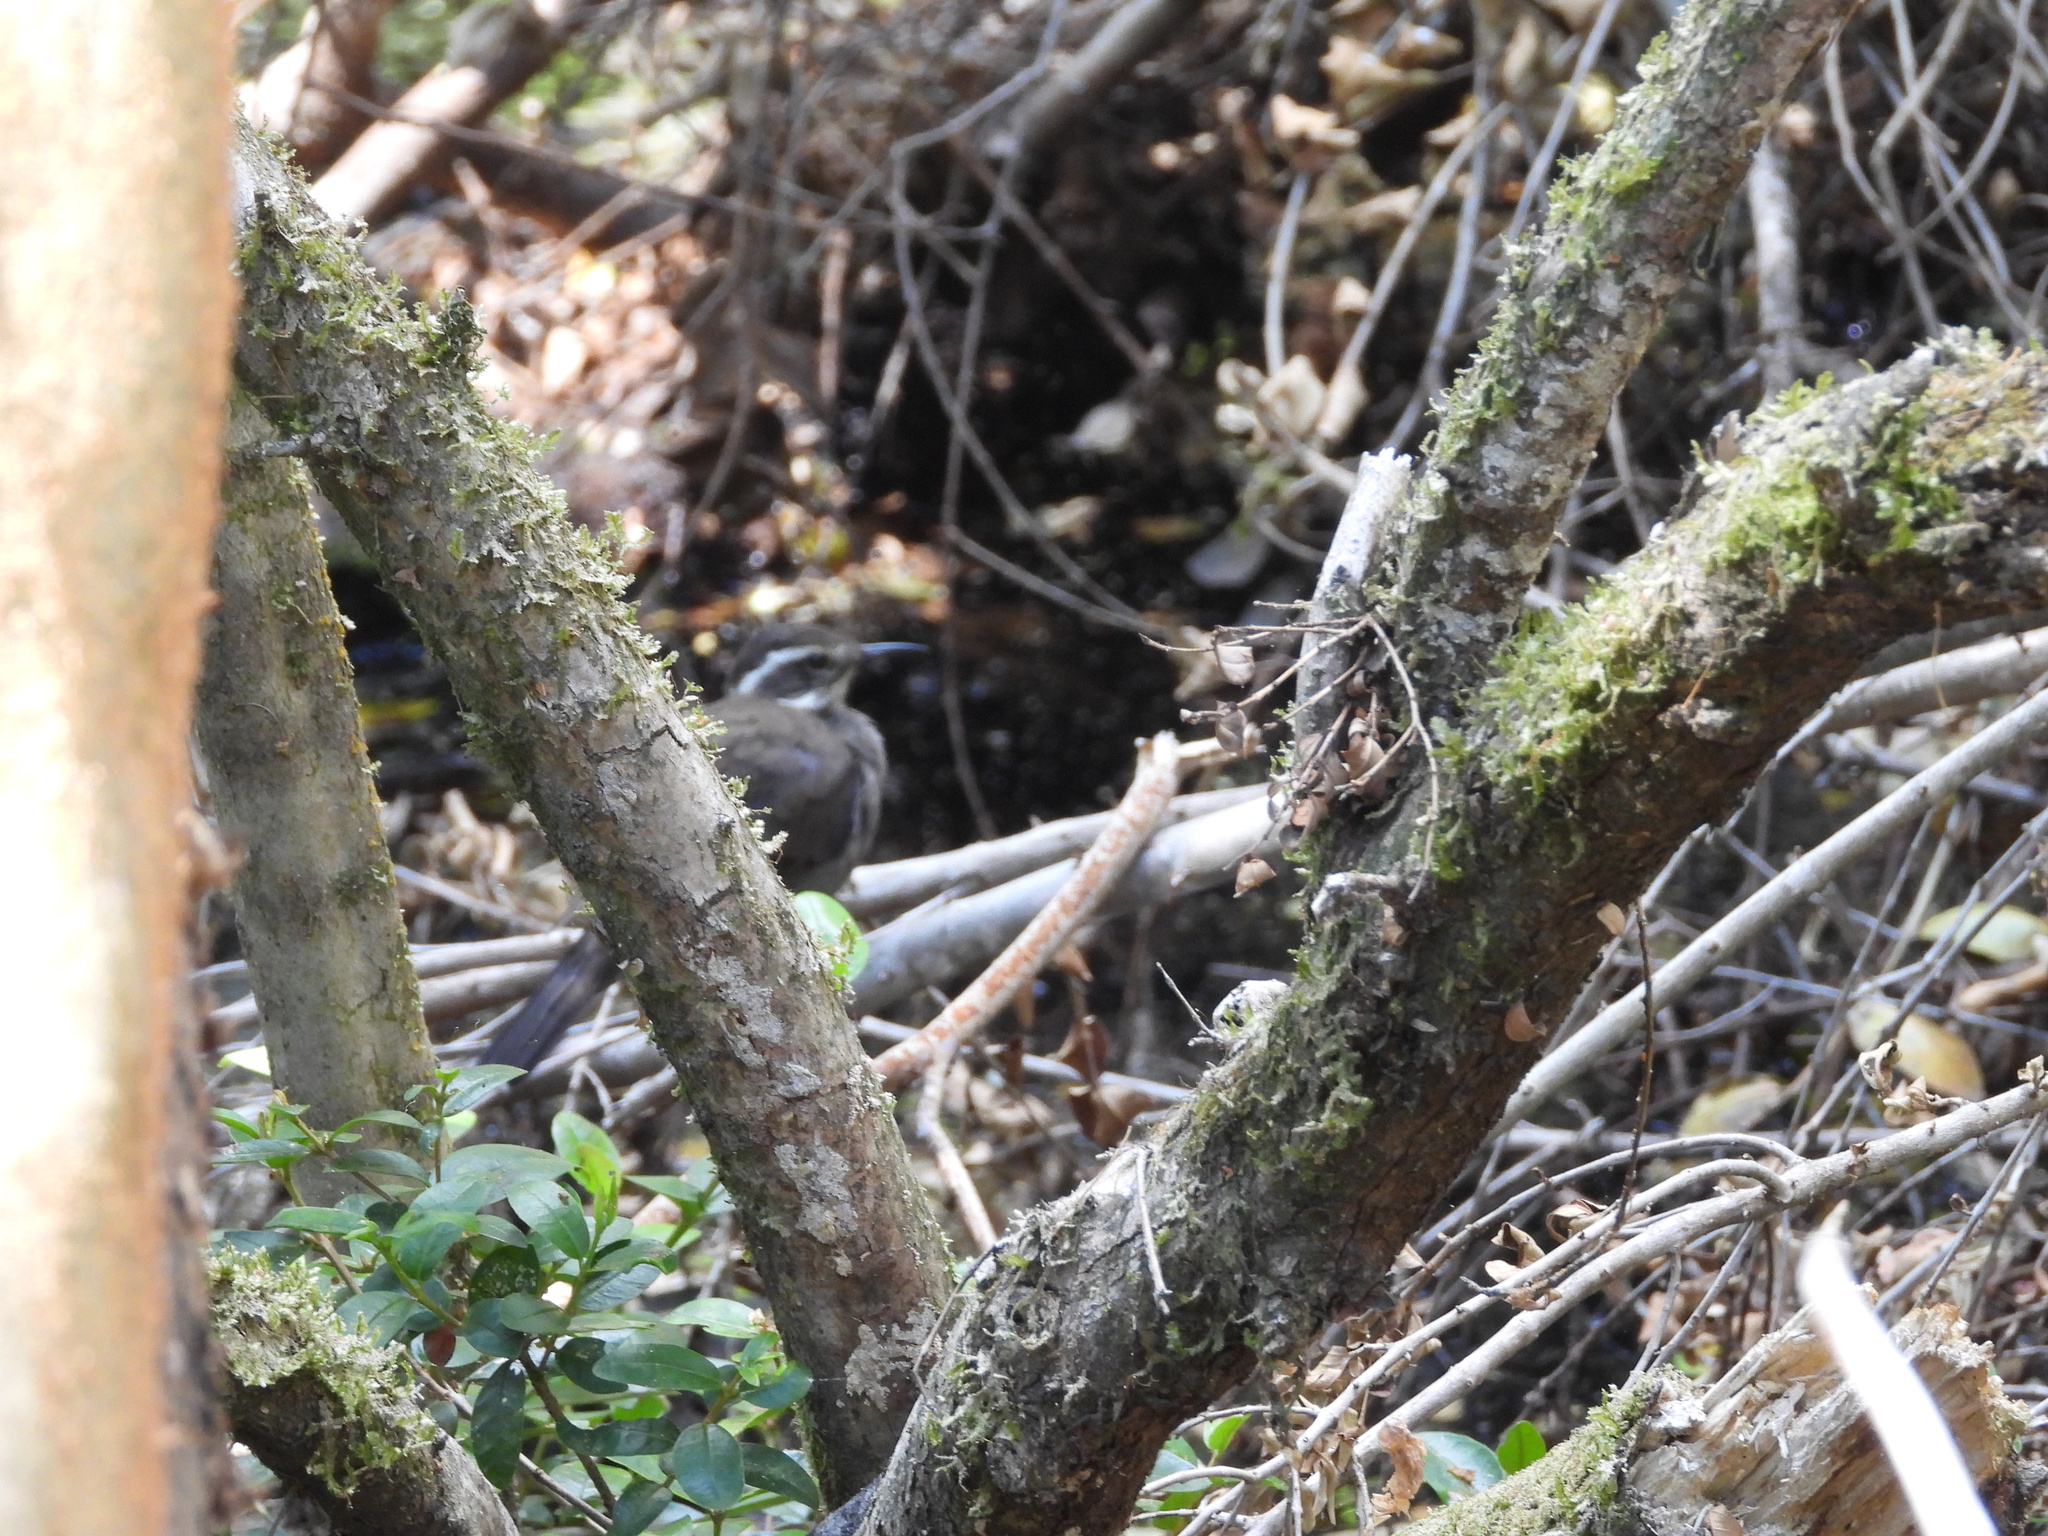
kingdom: Animalia
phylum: Chordata
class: Aves
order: Passeriformes
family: Furnariidae
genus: Cinclodes
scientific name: Cinclodes patagonicus
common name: Dark-bellied cinclodes
